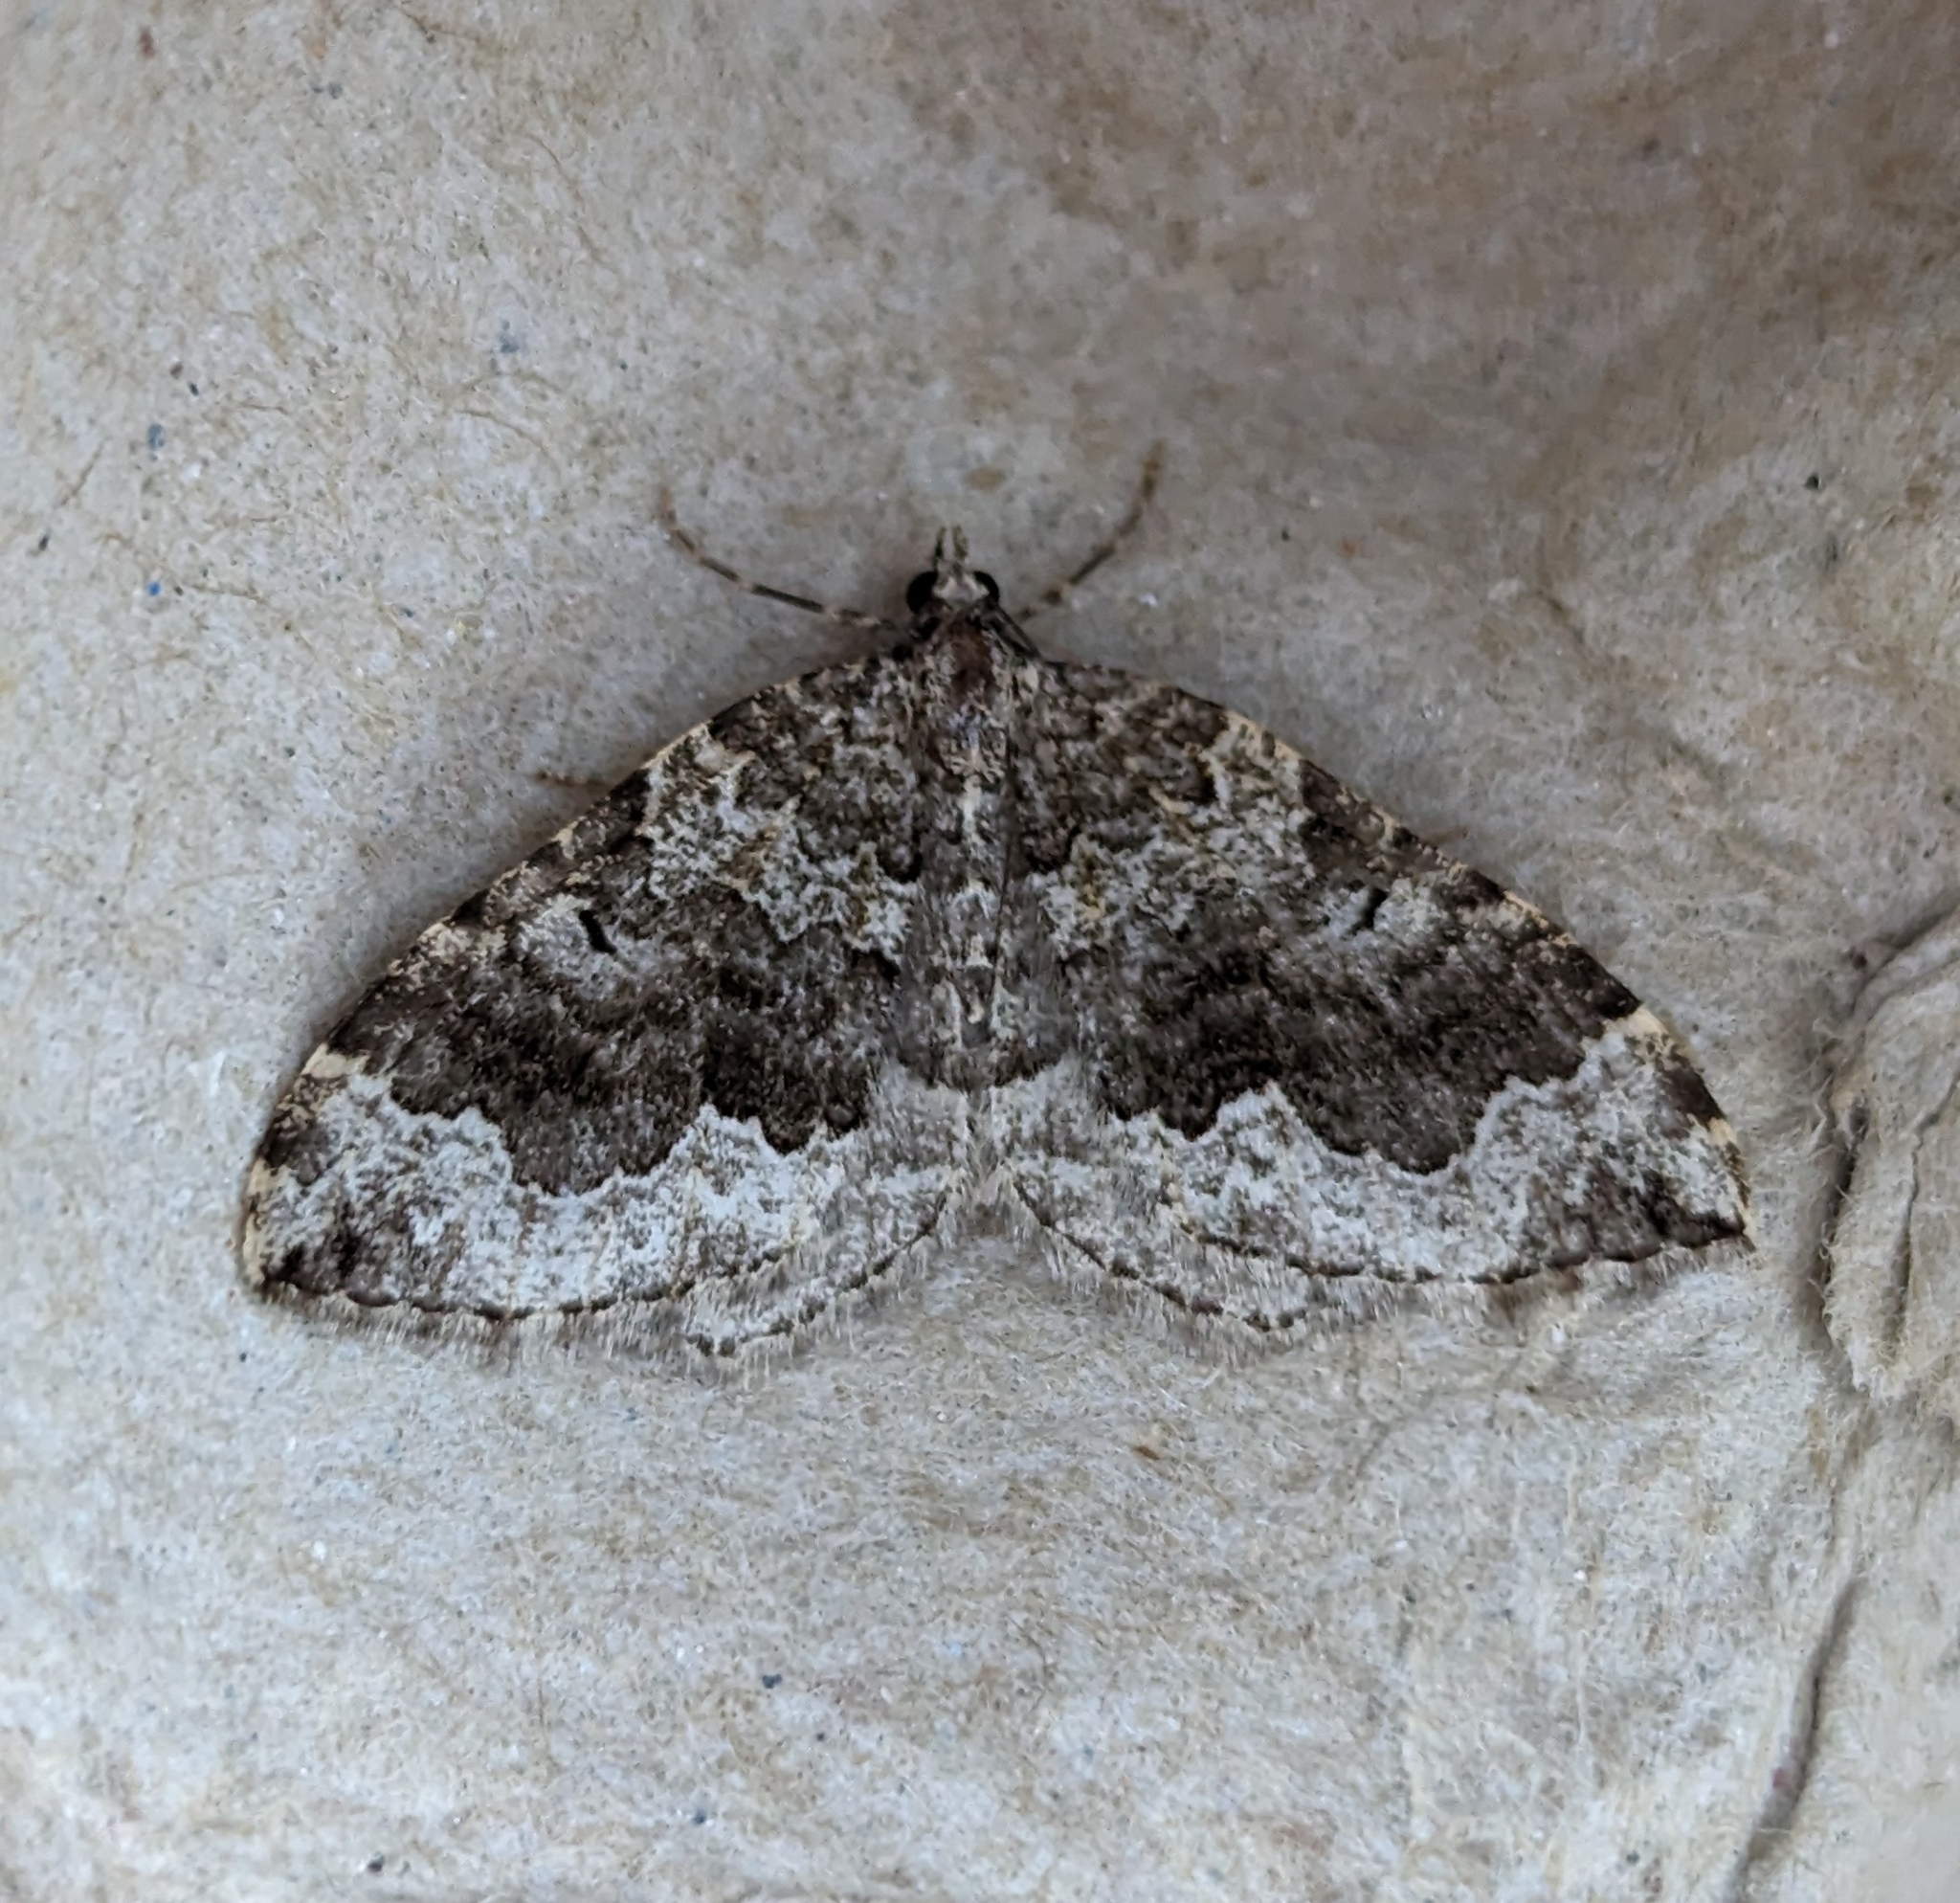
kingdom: Animalia
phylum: Arthropoda
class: Insecta
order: Lepidoptera
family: Geometridae
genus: Eustroma
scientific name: Eustroma semiatrata
